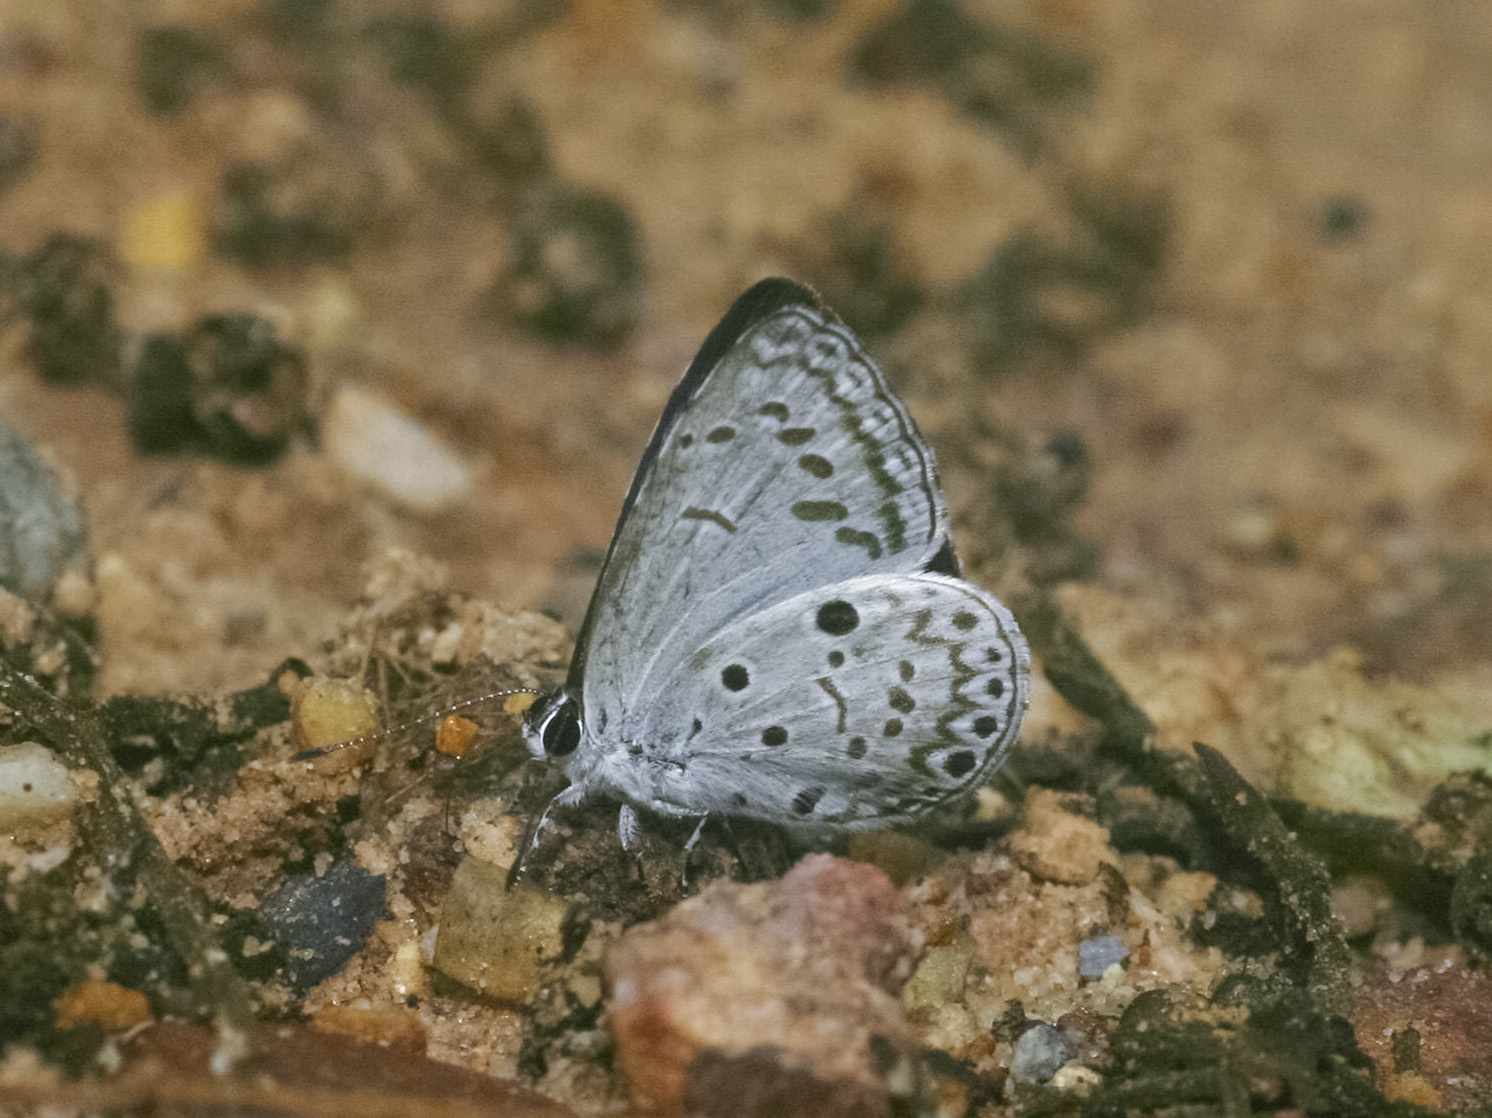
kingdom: Animalia
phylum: Arthropoda
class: Insecta
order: Lepidoptera
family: Lycaenidae
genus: Acytolepis
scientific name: Acytolepis puspa
